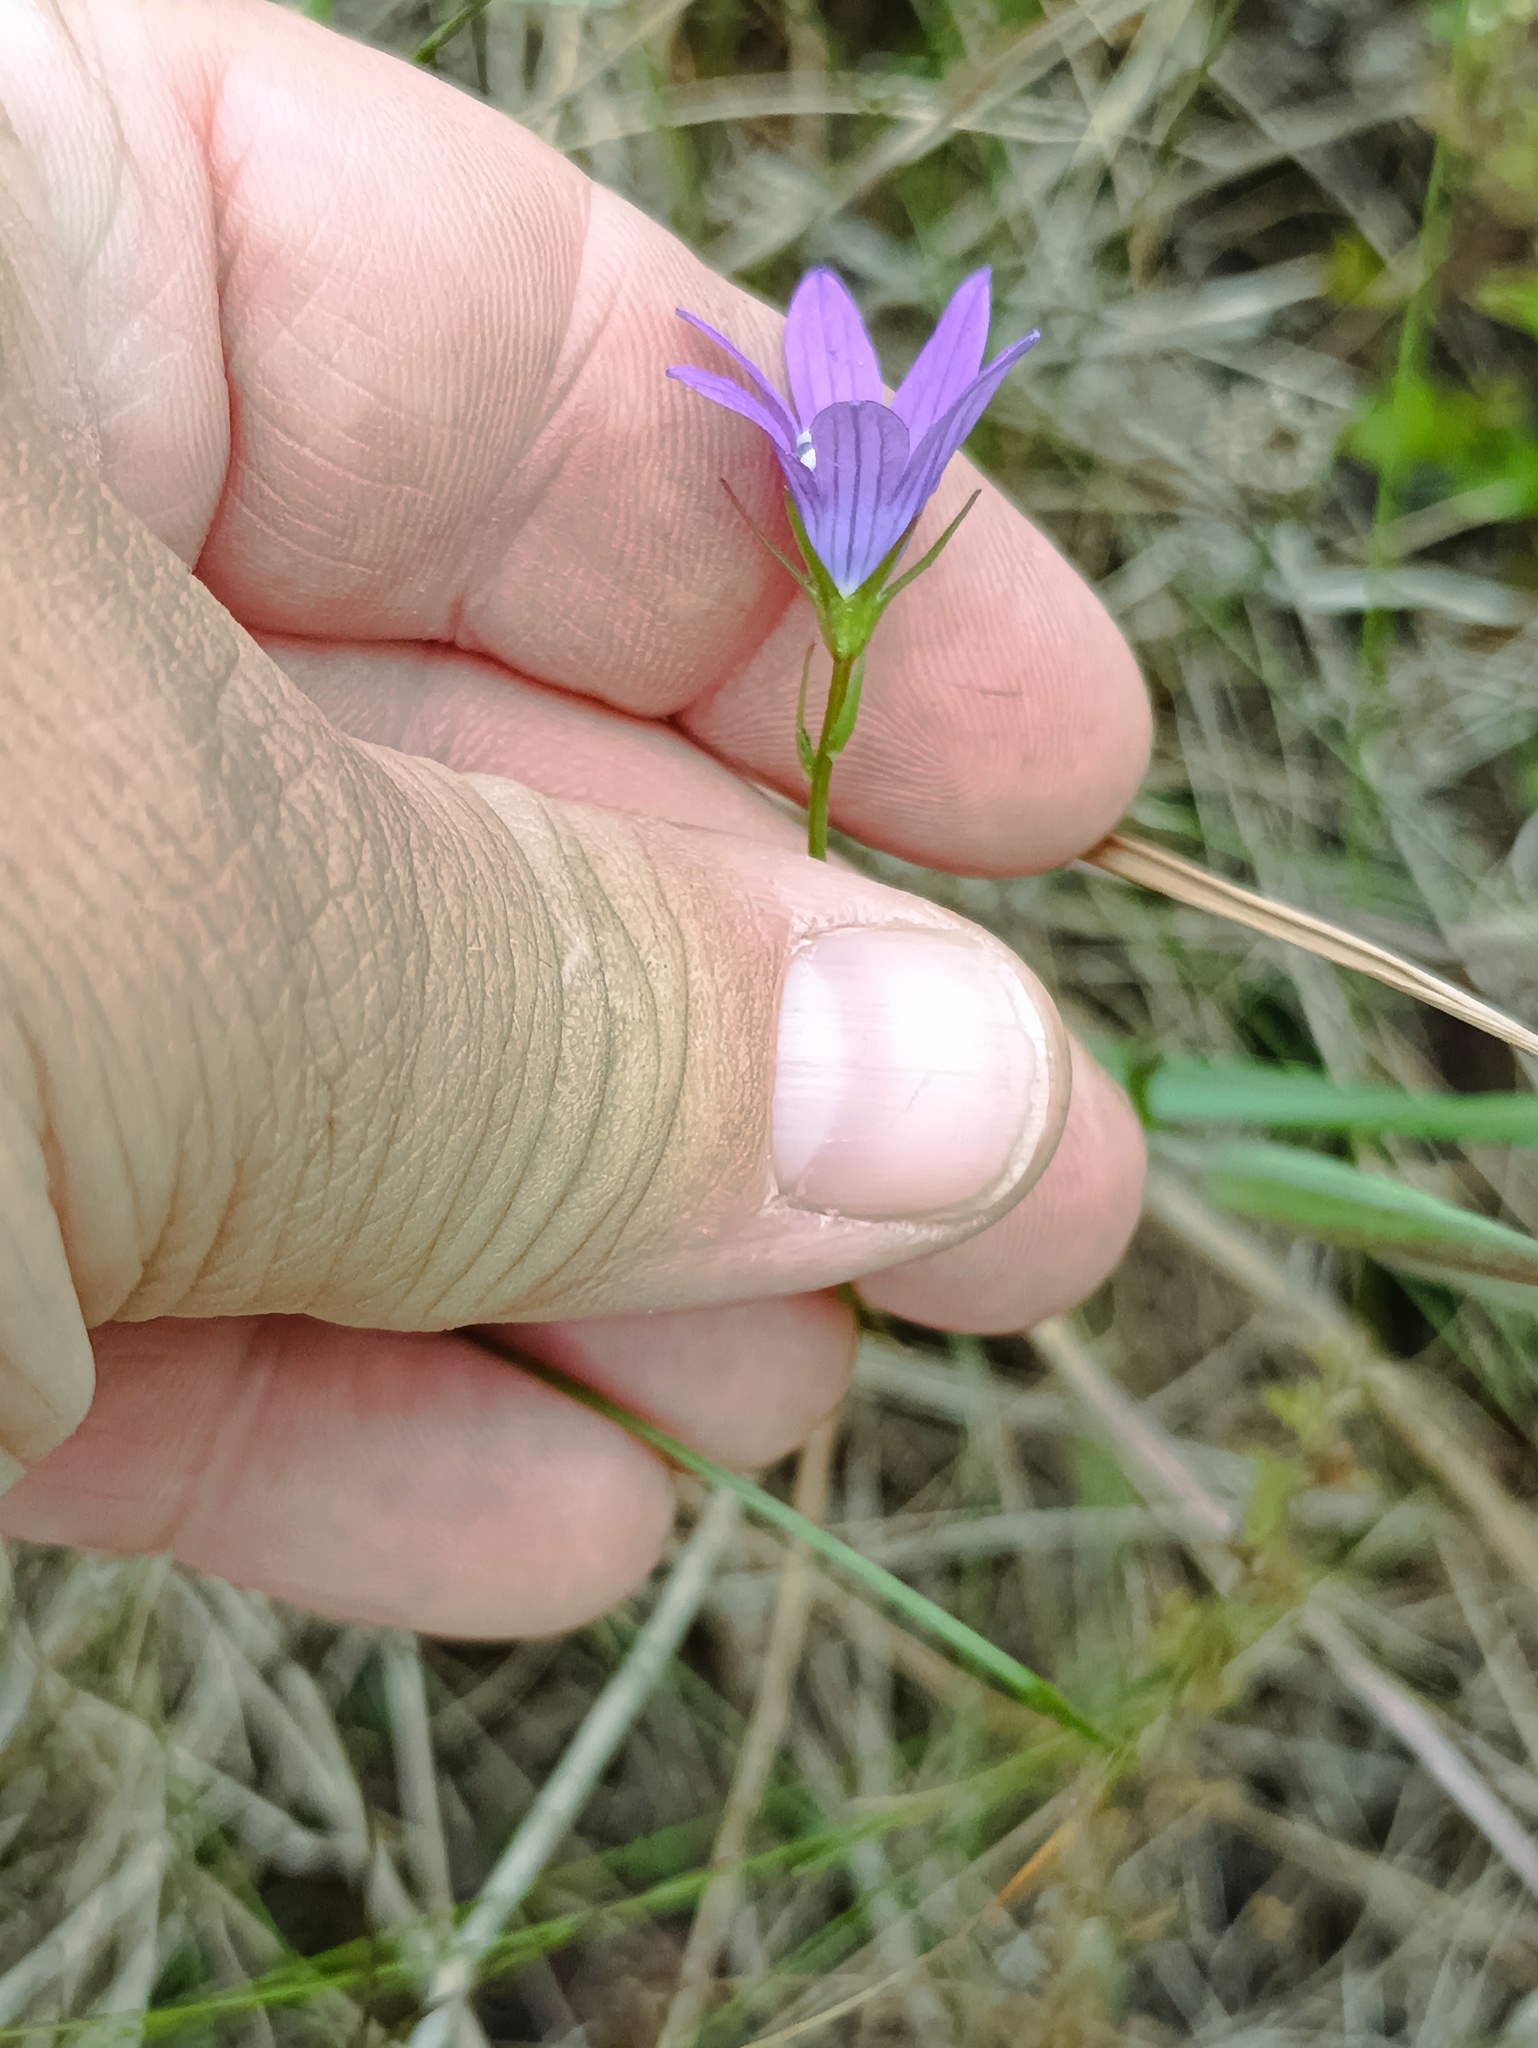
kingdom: Plantae
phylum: Tracheophyta
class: Magnoliopsida
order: Asterales
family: Campanulaceae
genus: Campanula
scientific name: Campanula patula
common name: Spreading bellflower
